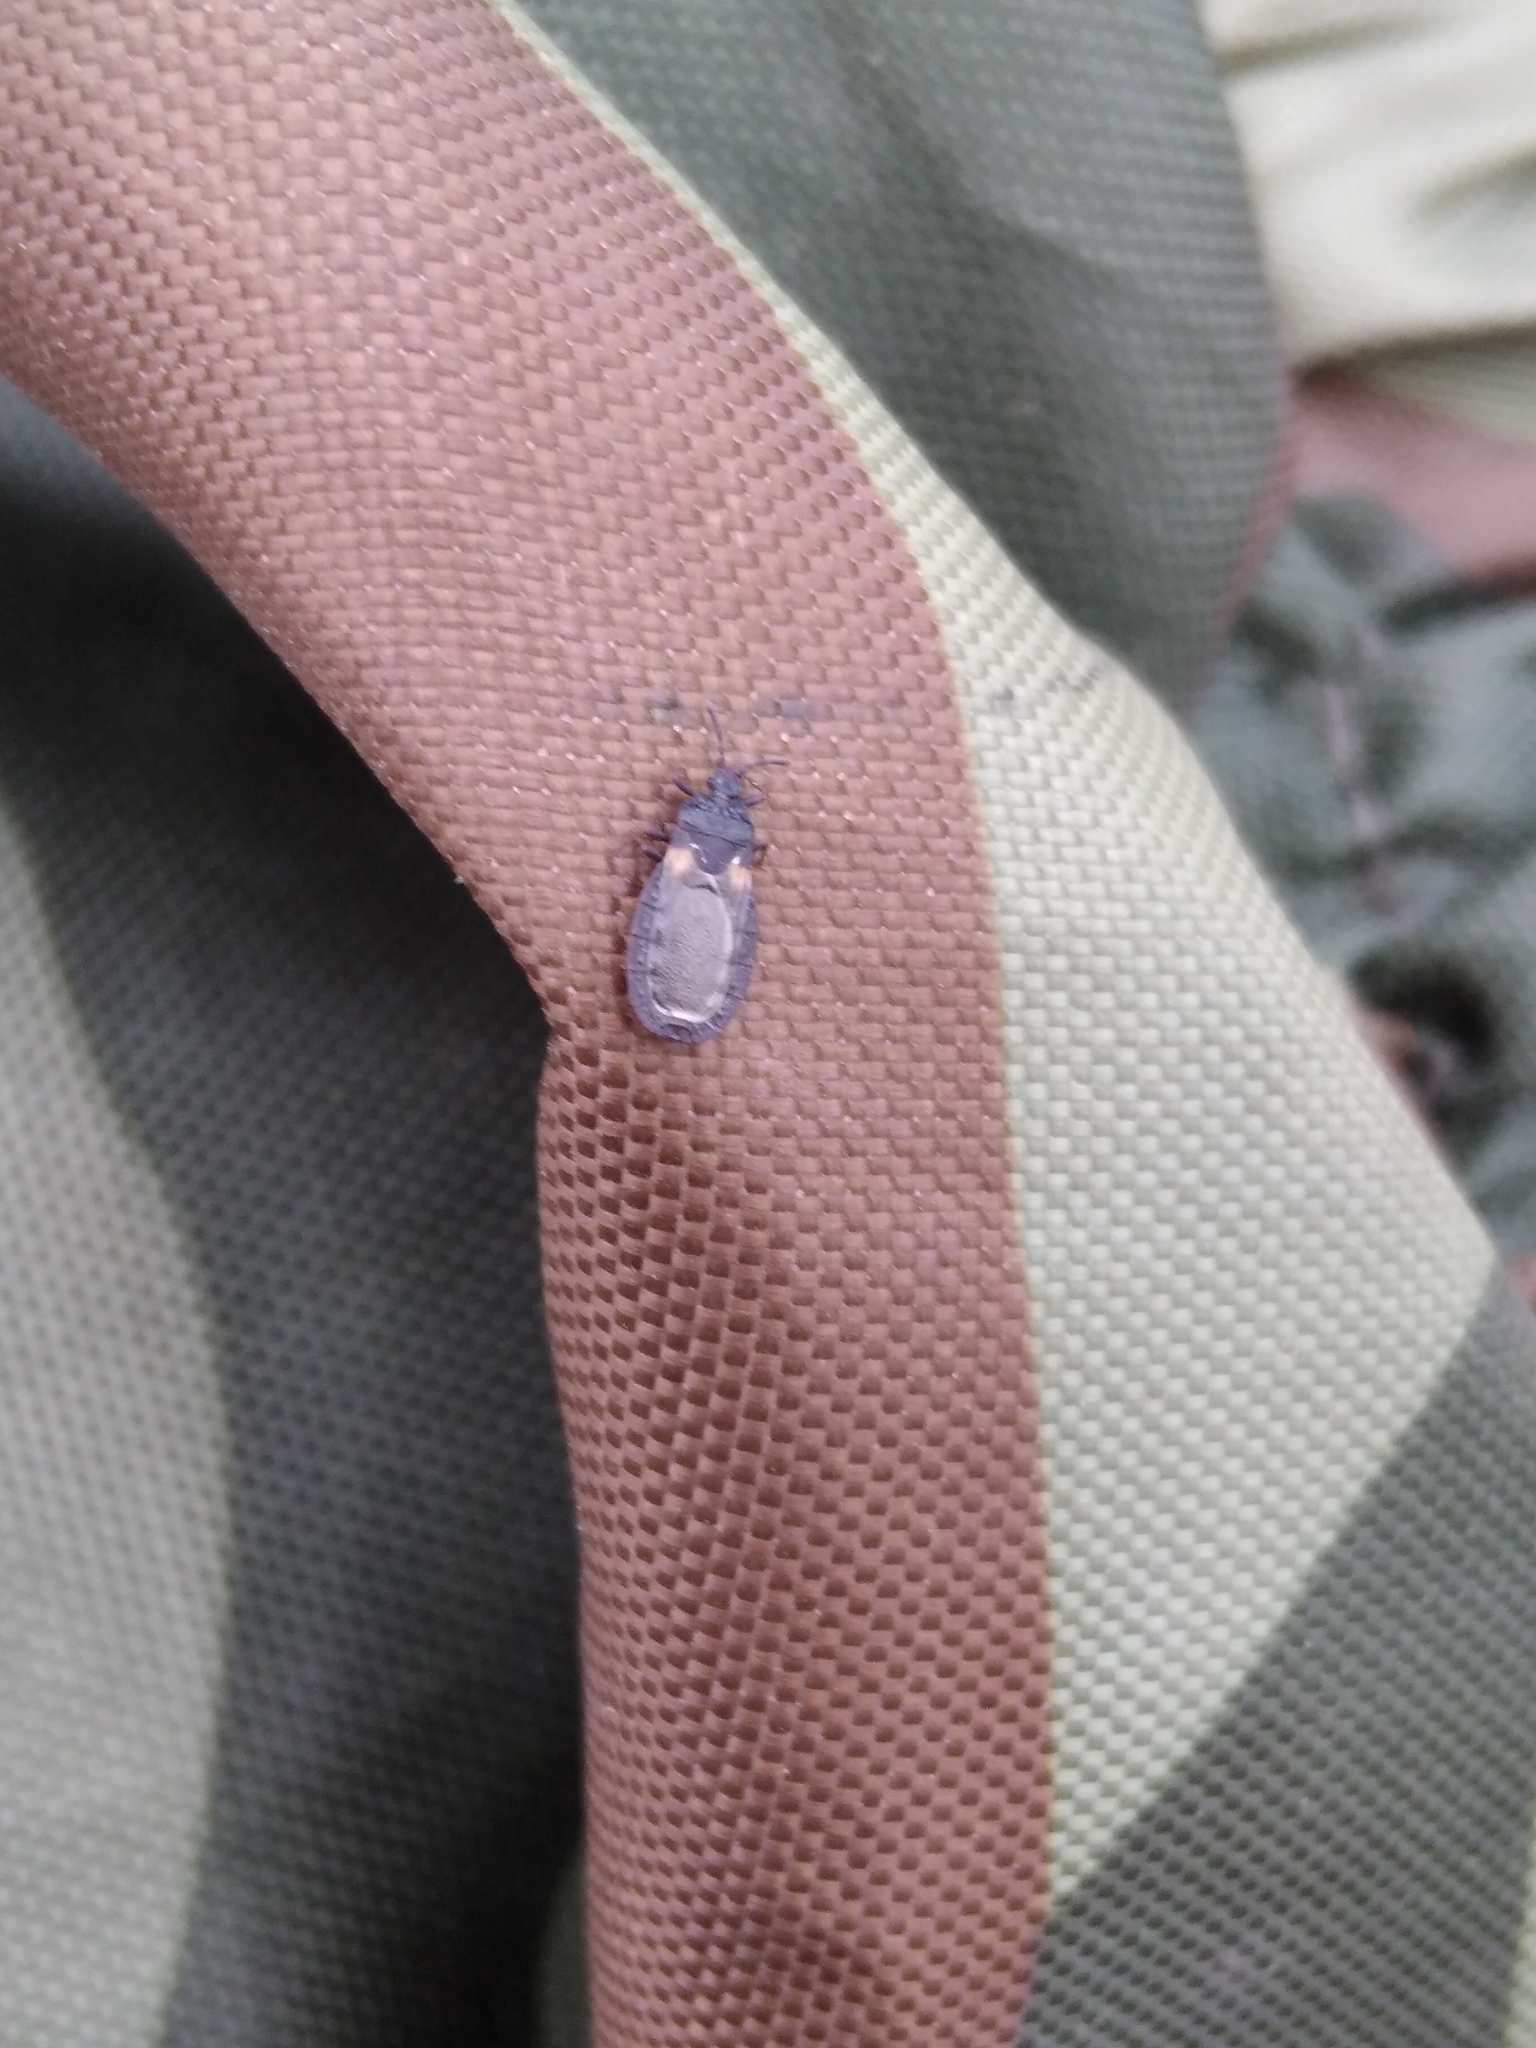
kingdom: Animalia
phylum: Arthropoda
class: Insecta
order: Hemiptera
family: Aradidae
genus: Aneurus
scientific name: Aneurus
